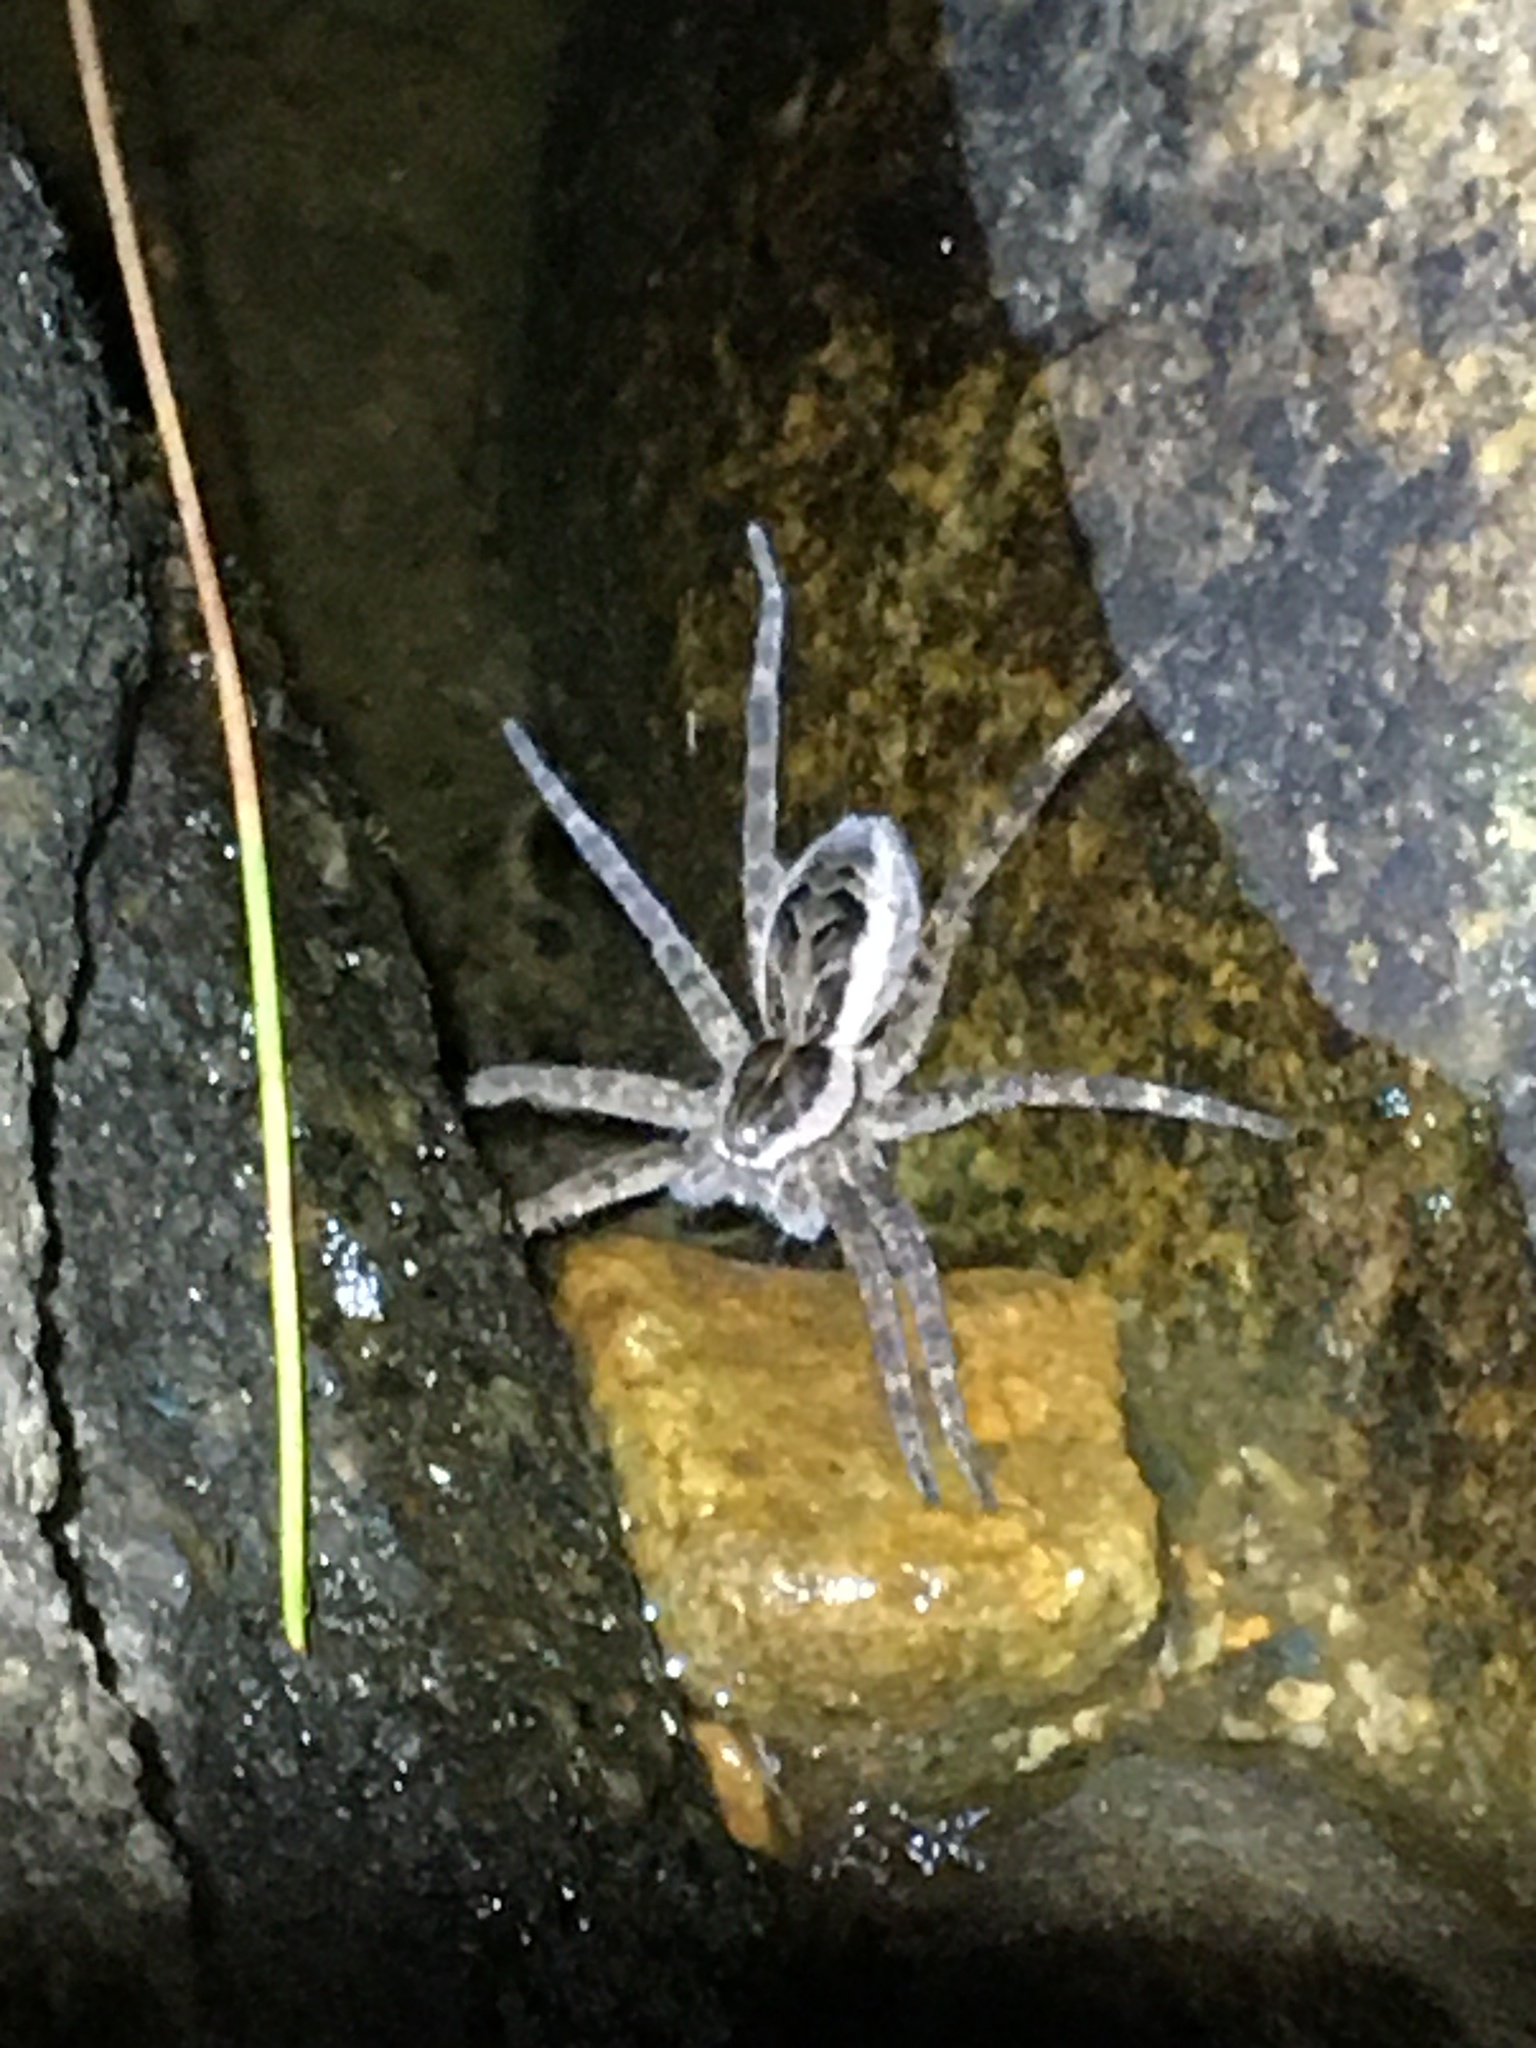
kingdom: Animalia
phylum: Arthropoda
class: Arachnida
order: Araneae
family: Pisauridae
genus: Dolomedes
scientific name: Dolomedes scriptus
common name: Striped fishing spider
